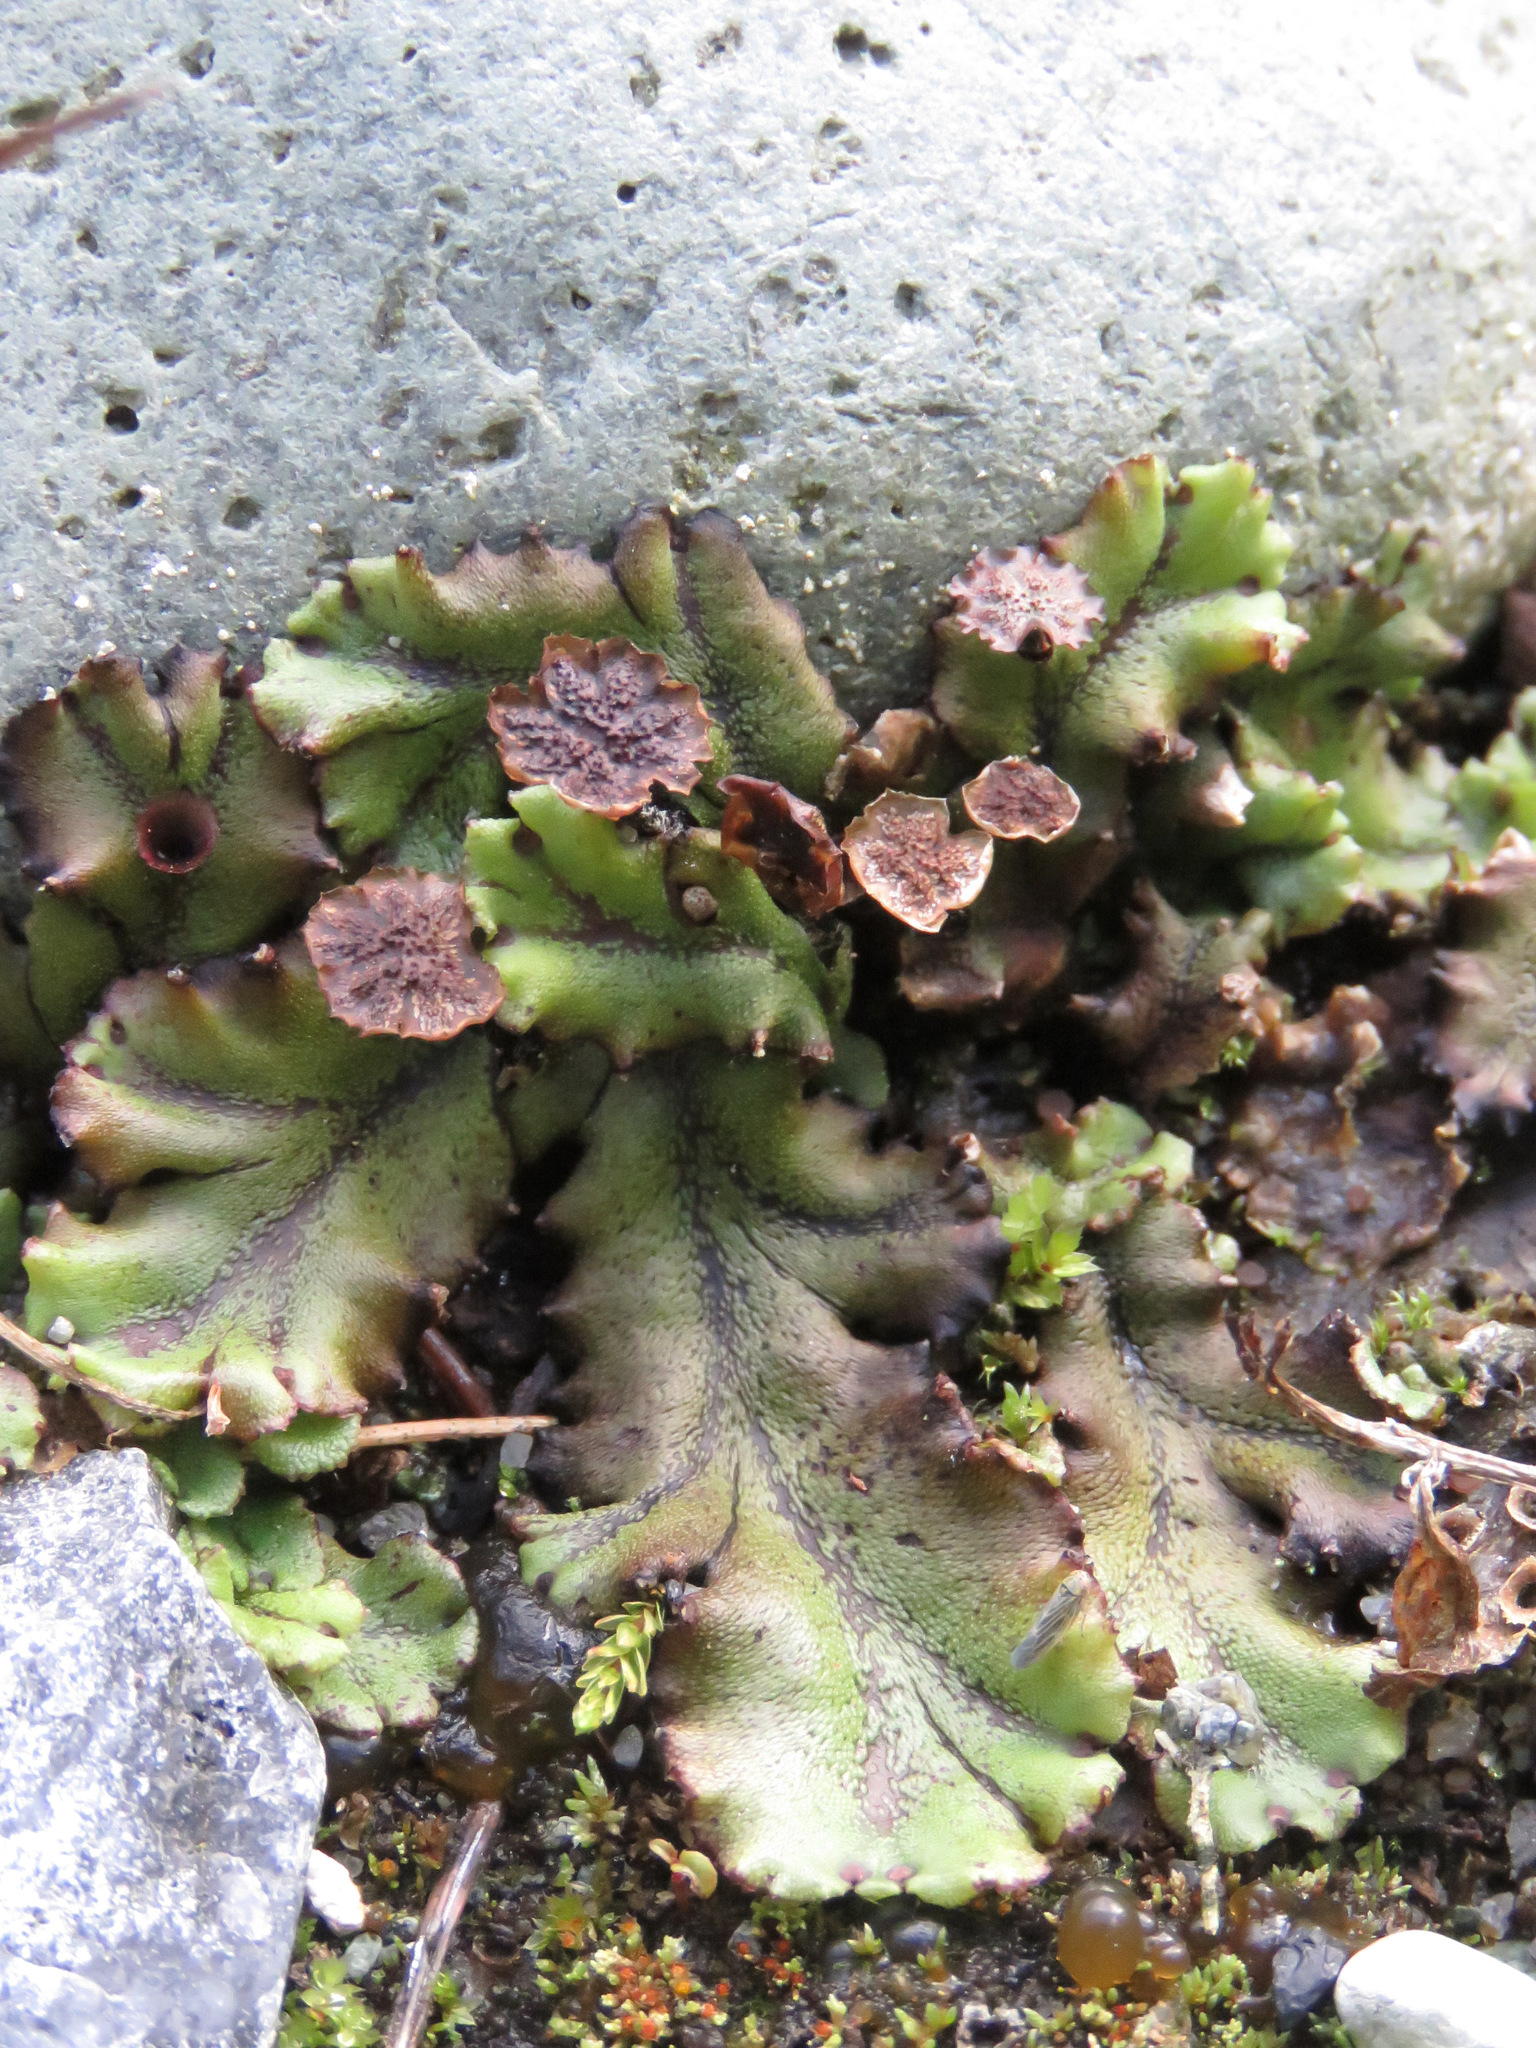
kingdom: Plantae
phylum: Marchantiophyta
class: Marchantiopsida
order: Marchantiales
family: Marchantiaceae
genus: Marchantia
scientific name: Marchantia polymorpha
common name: Common liverwort
